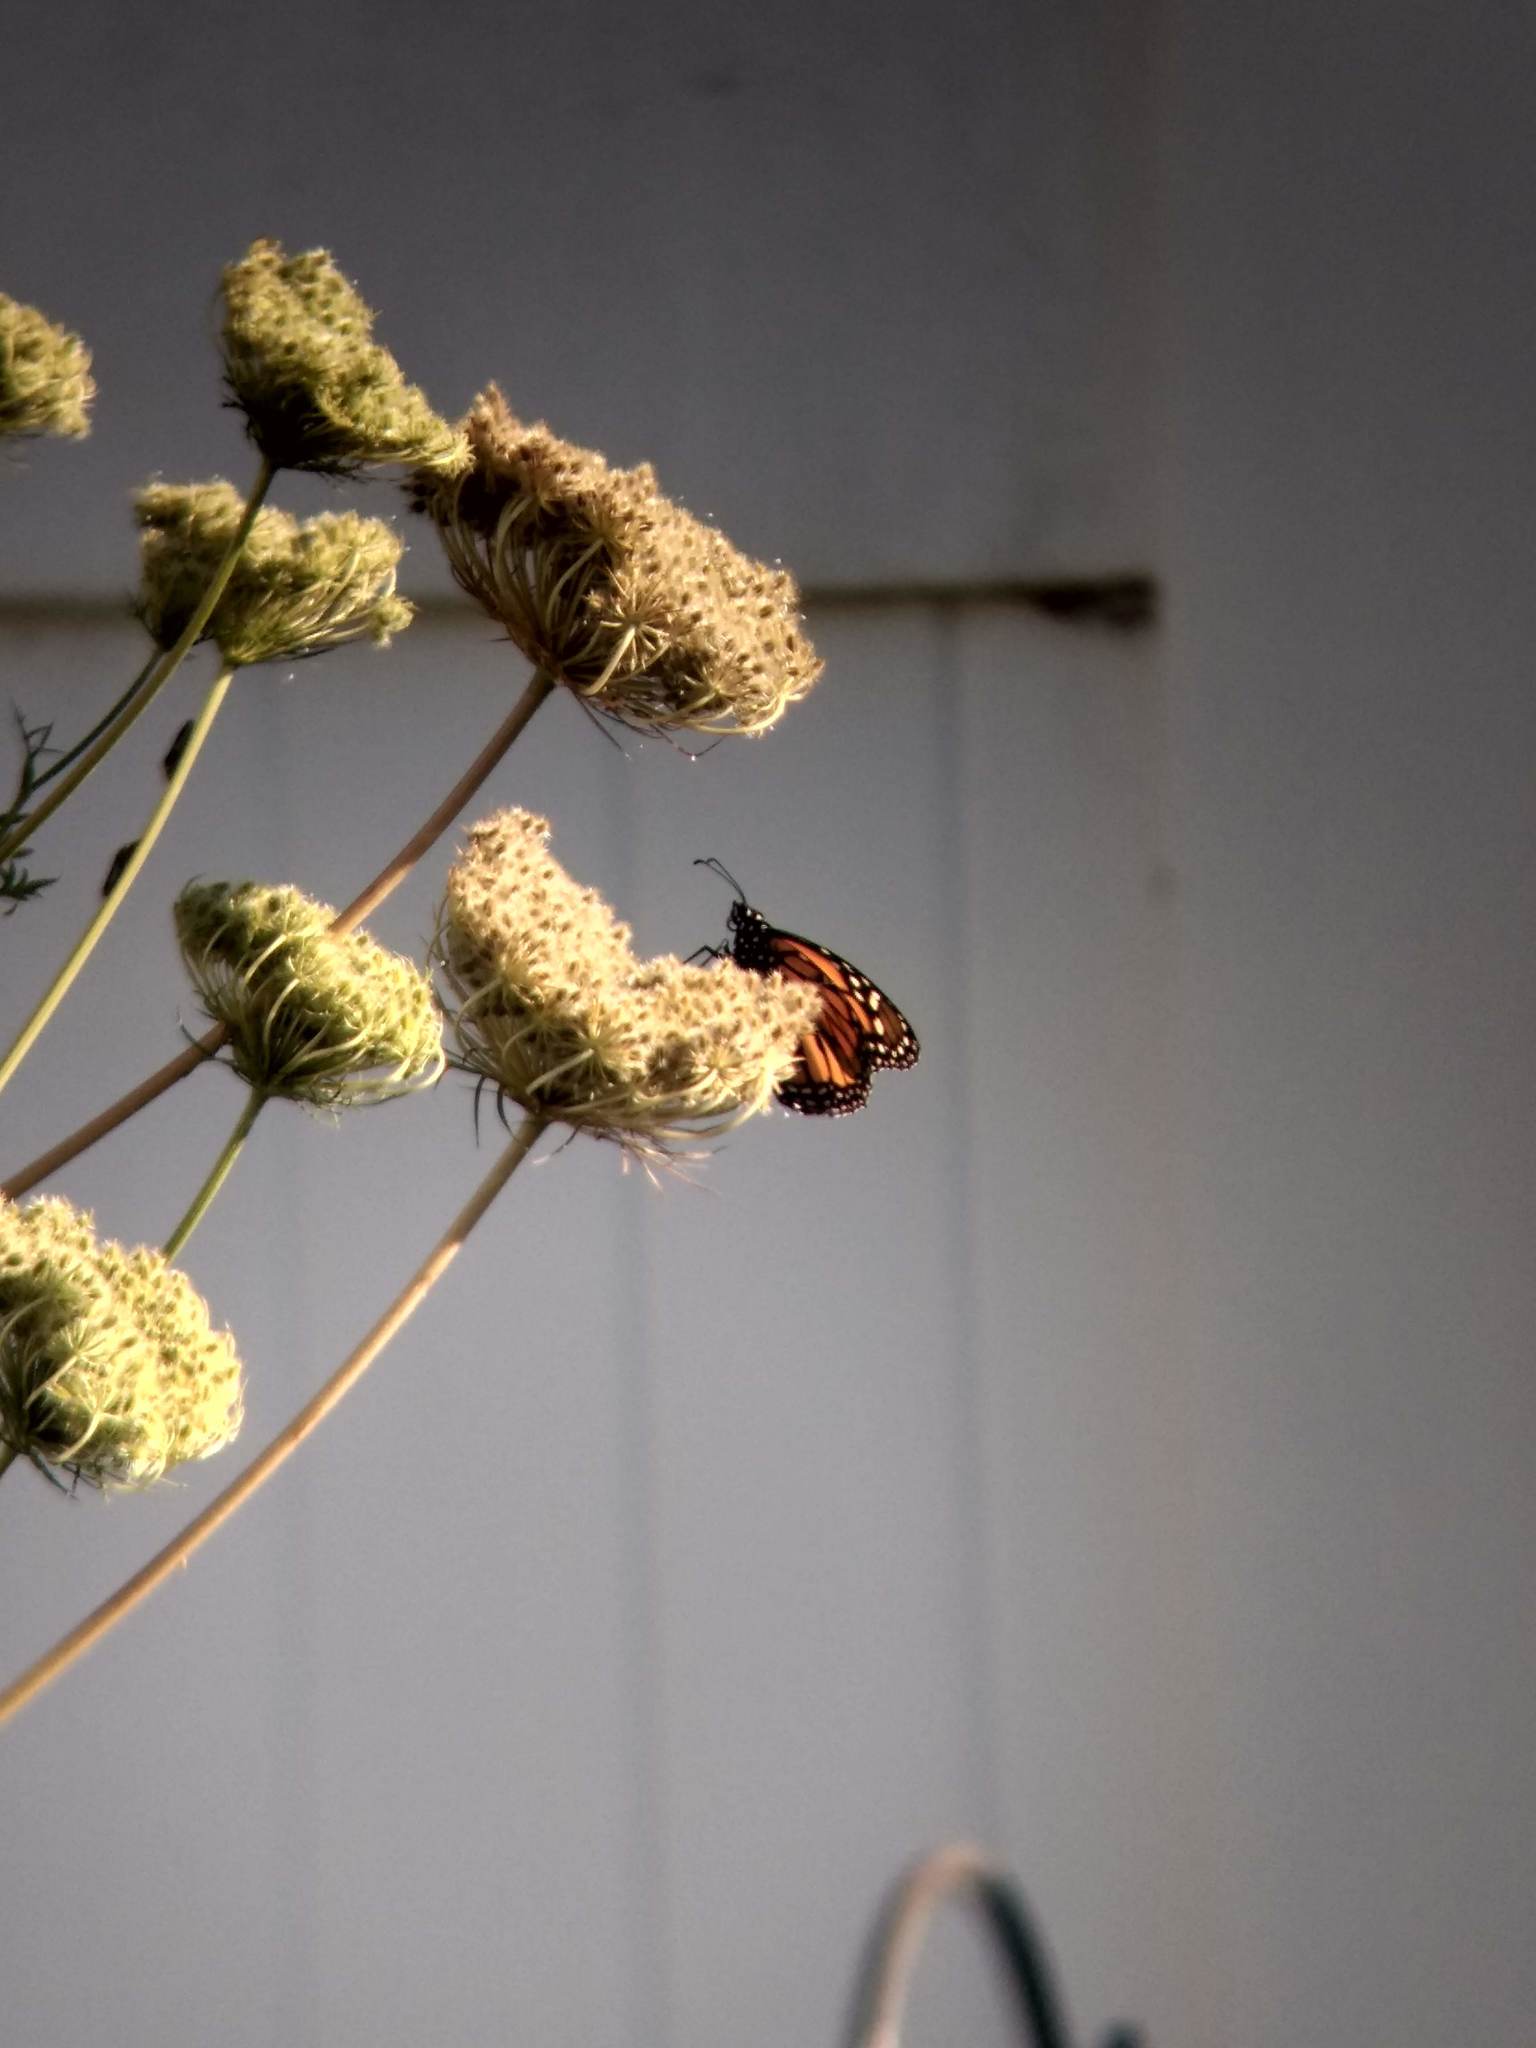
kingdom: Animalia
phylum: Arthropoda
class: Insecta
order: Lepidoptera
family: Nymphalidae
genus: Danaus
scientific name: Danaus plexippus
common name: Monarch
